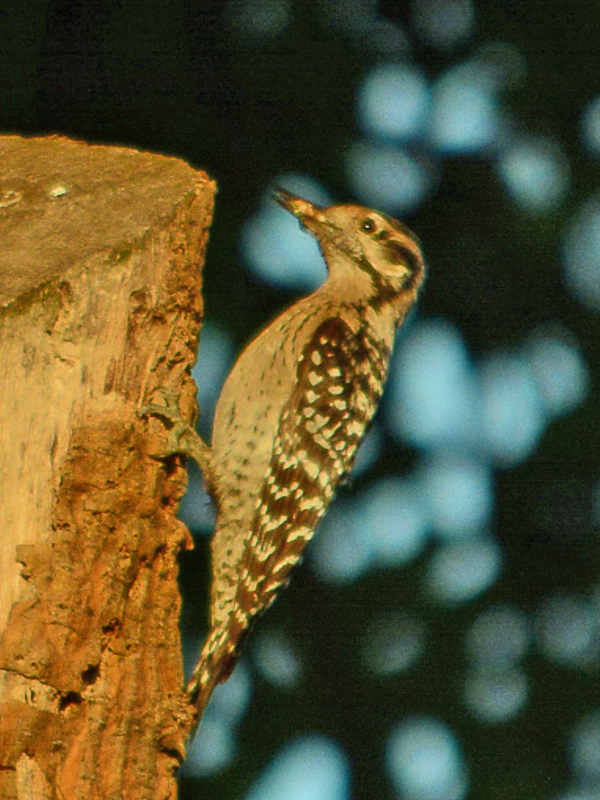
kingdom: Animalia
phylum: Chordata
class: Aves
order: Piciformes
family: Picidae
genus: Dryobates
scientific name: Dryobates scalaris
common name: Ladder-backed woodpecker
